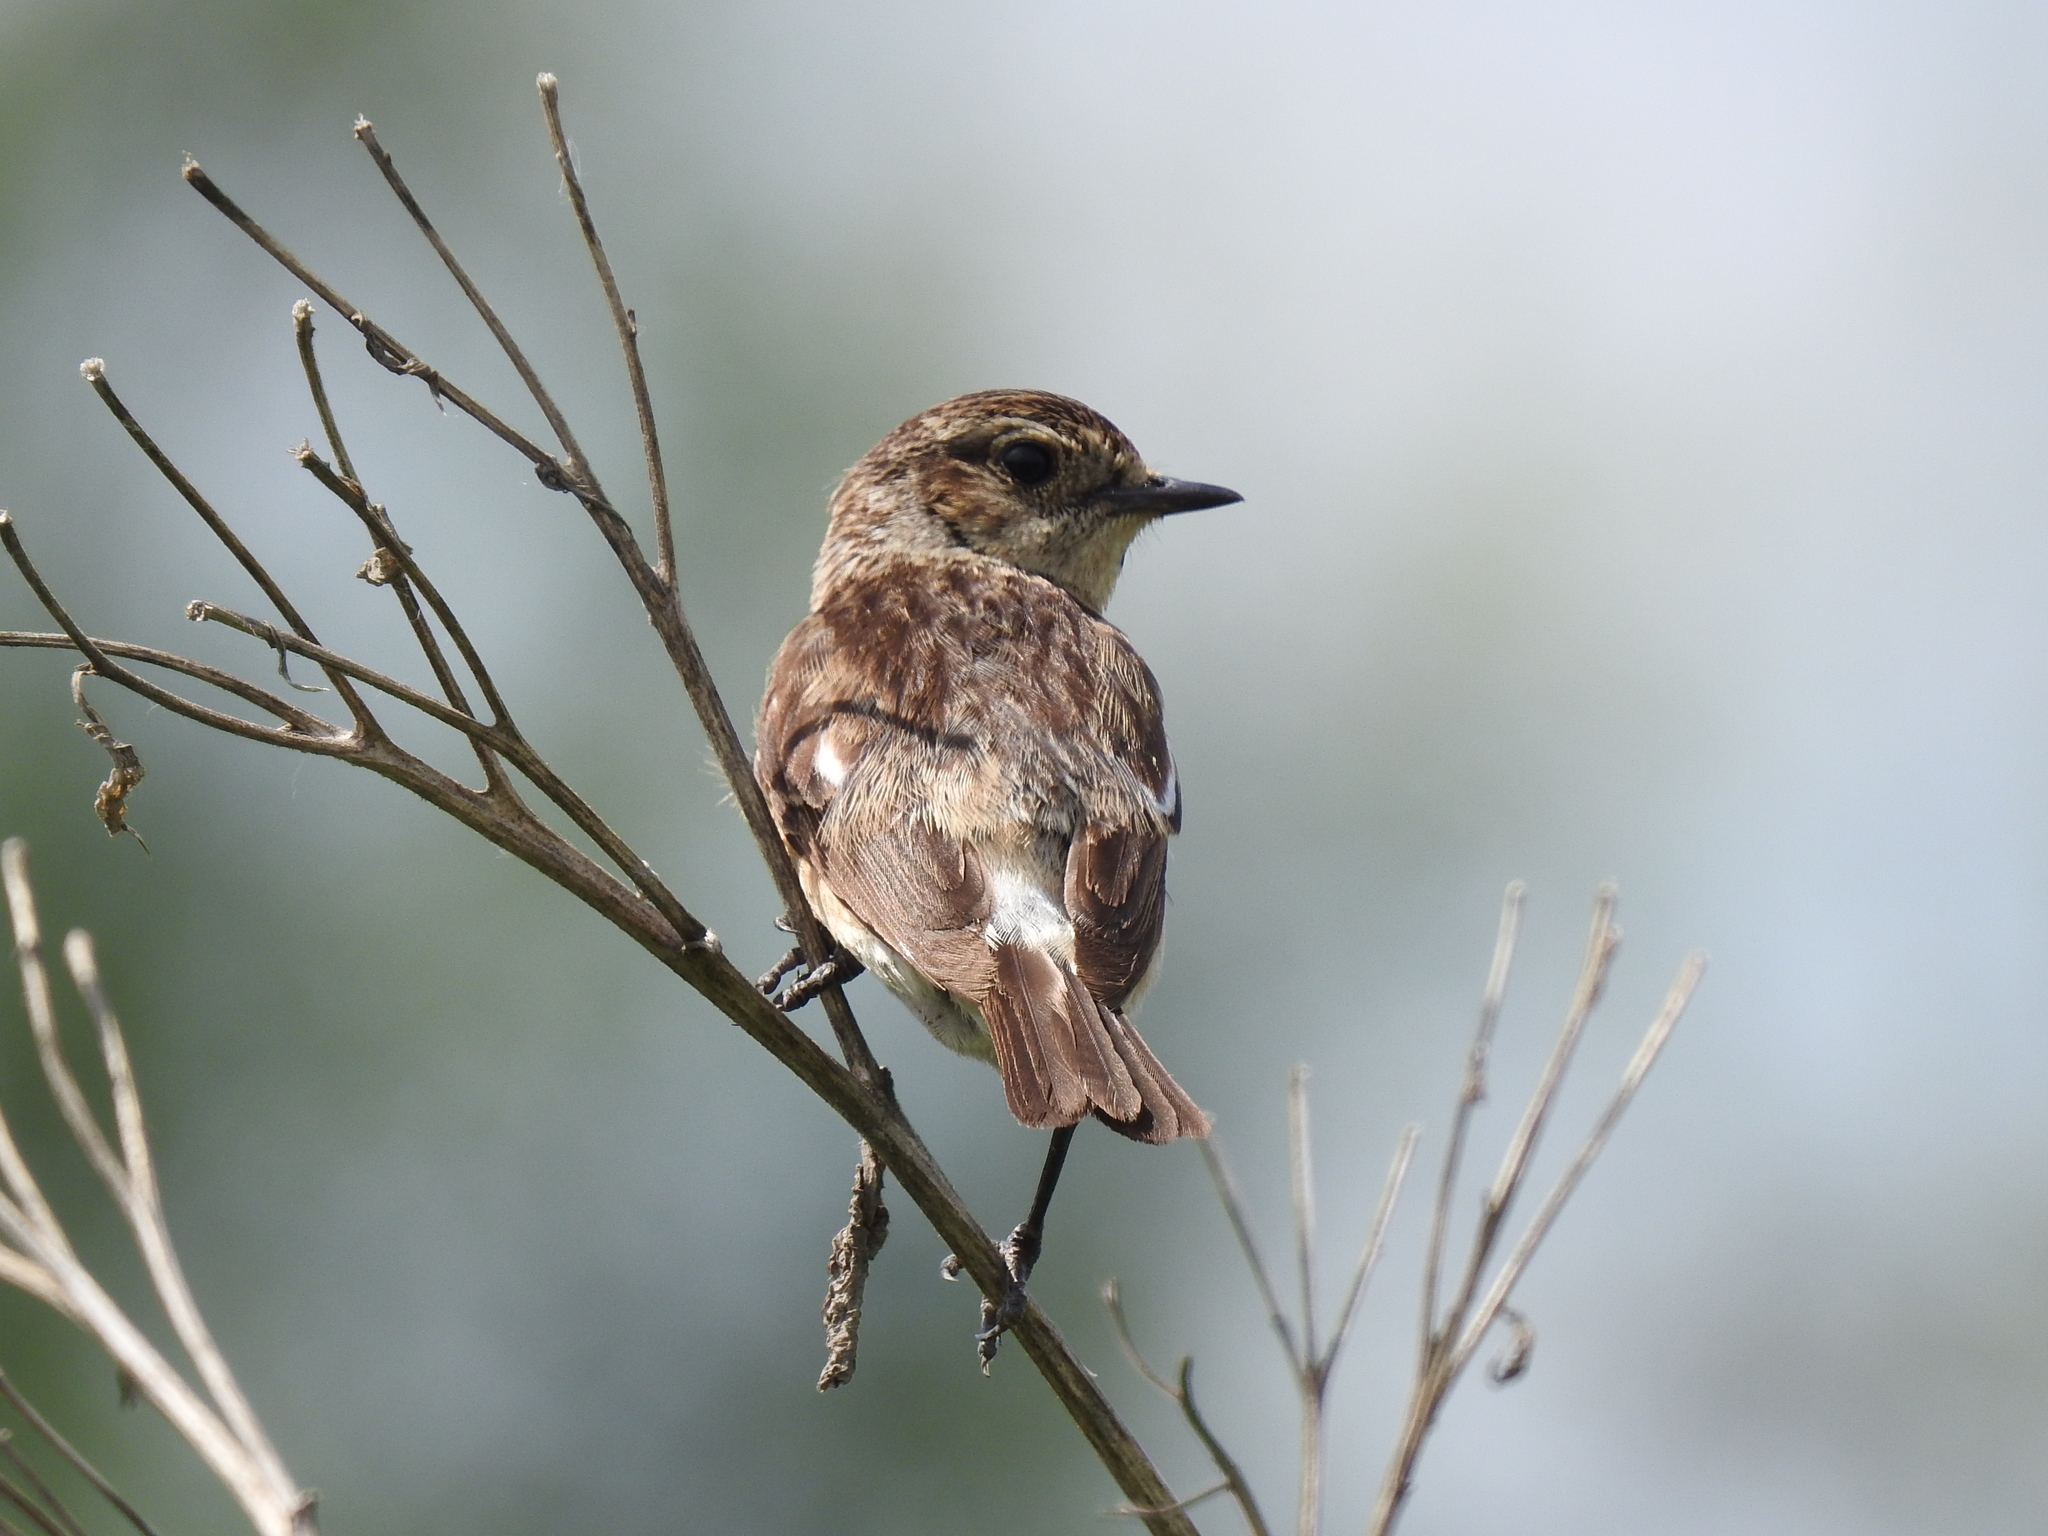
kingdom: Animalia
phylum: Chordata
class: Aves
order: Passeriformes
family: Muscicapidae
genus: Saxicola
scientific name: Saxicola maurus
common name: Siberian stonechat
